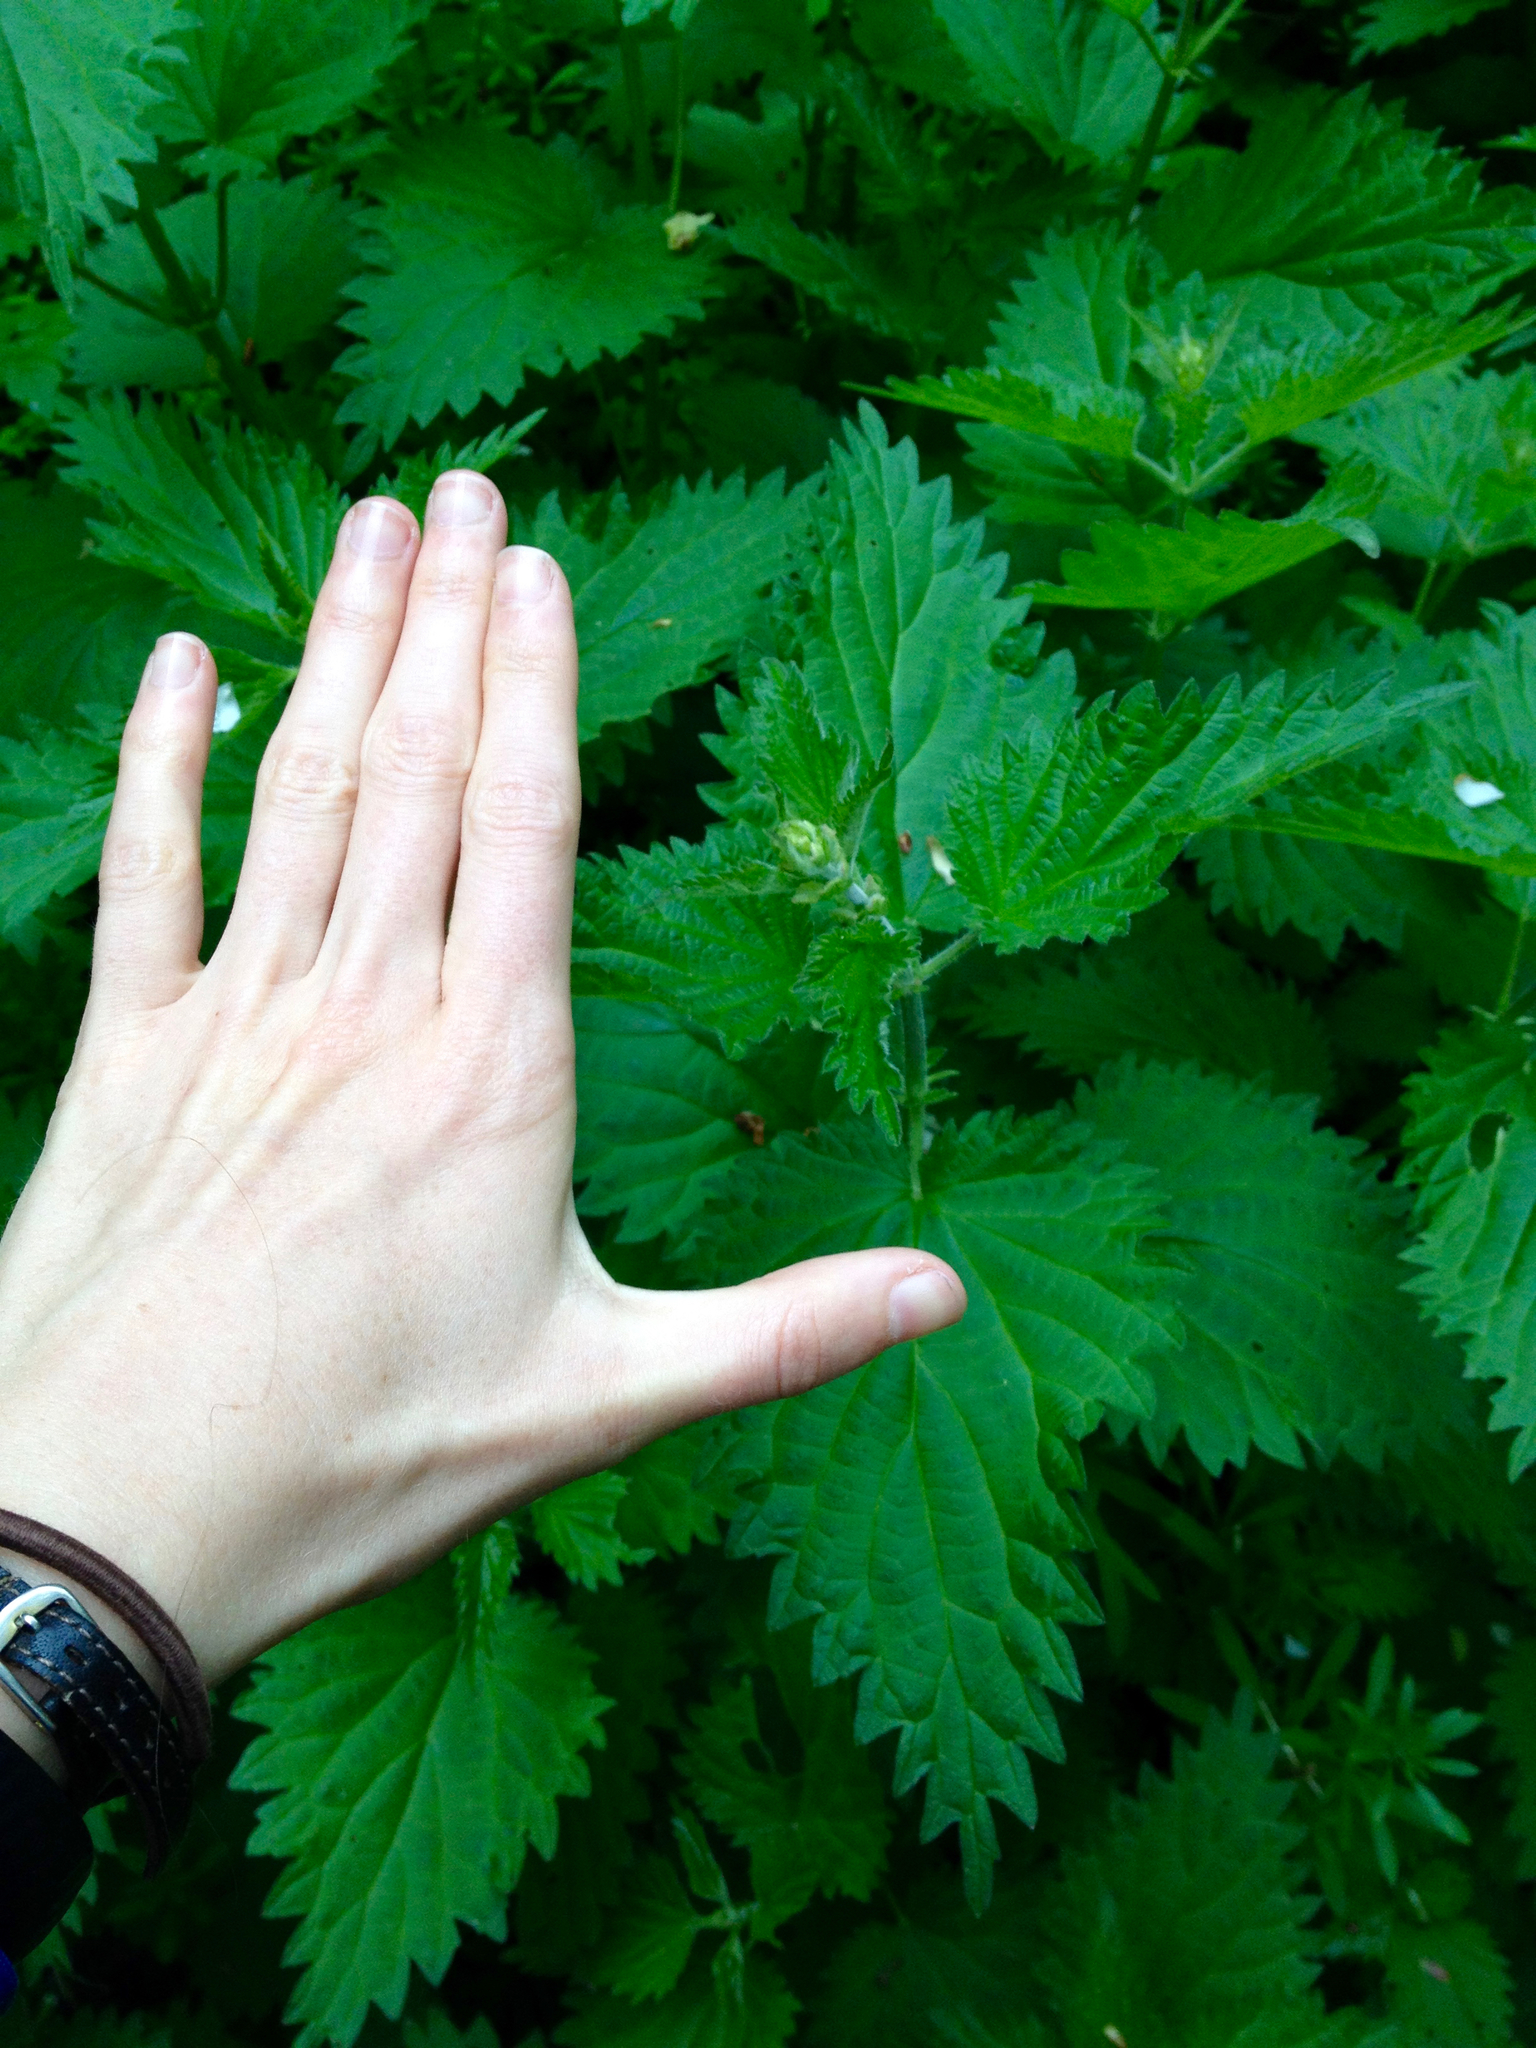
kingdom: Plantae
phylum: Tracheophyta
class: Magnoliopsida
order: Rosales
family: Urticaceae
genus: Urtica
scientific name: Urtica dioica
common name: Common nettle
